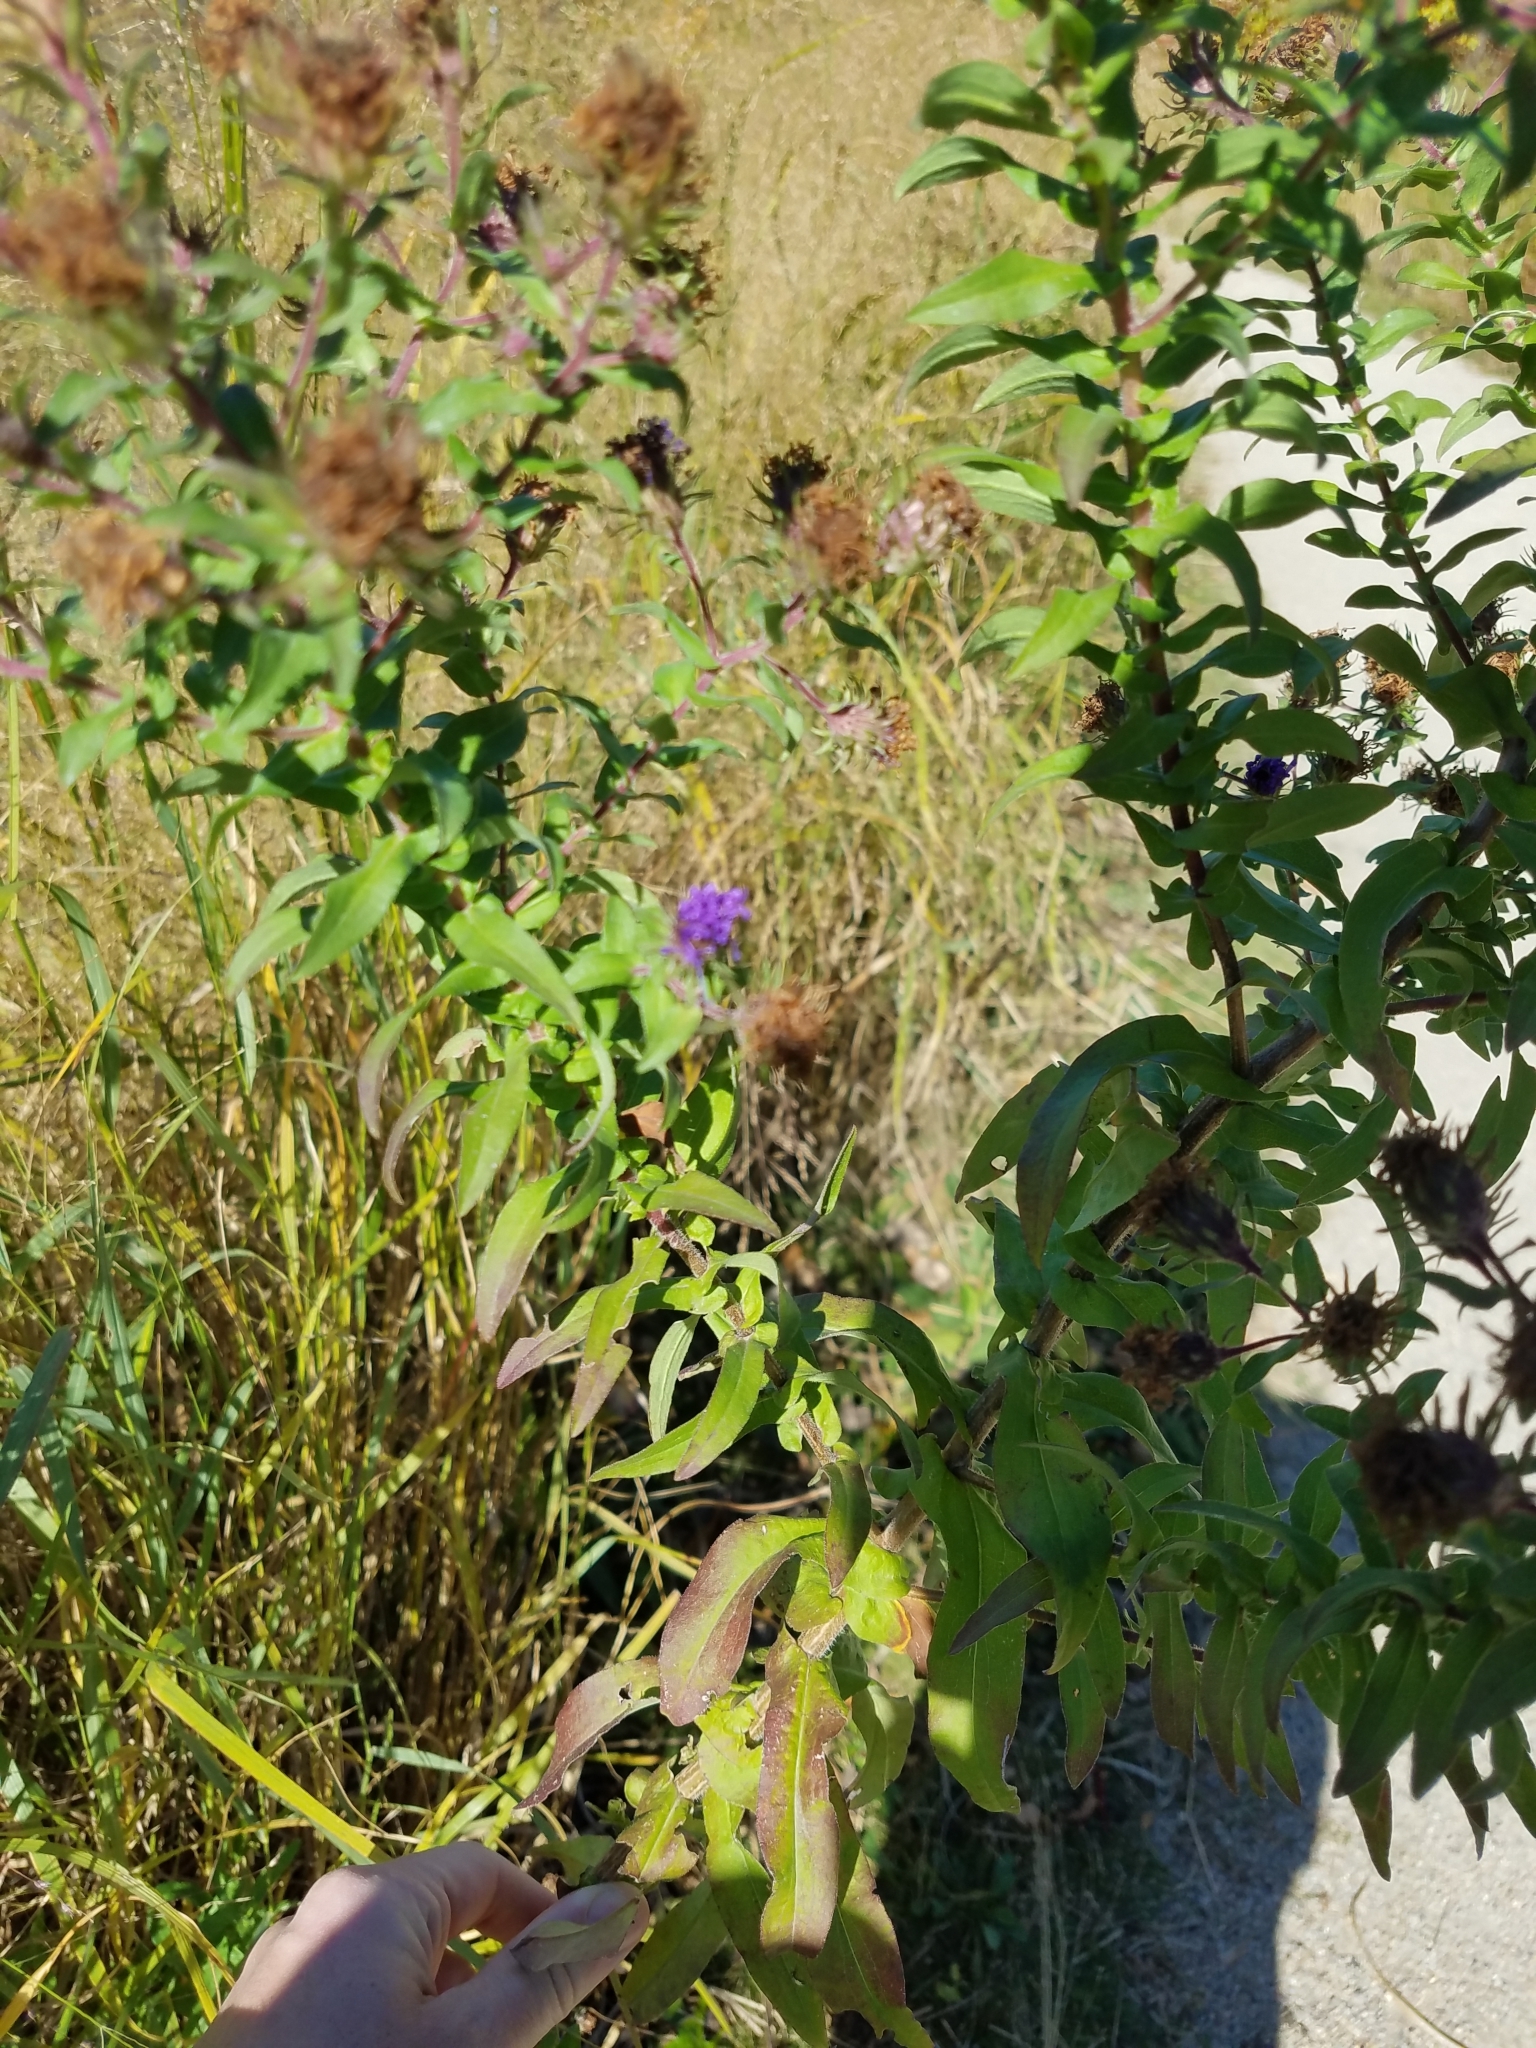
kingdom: Plantae
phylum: Tracheophyta
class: Magnoliopsida
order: Asterales
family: Asteraceae
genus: Symphyotrichum
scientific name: Symphyotrichum novae-angliae
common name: Michaelmas daisy
